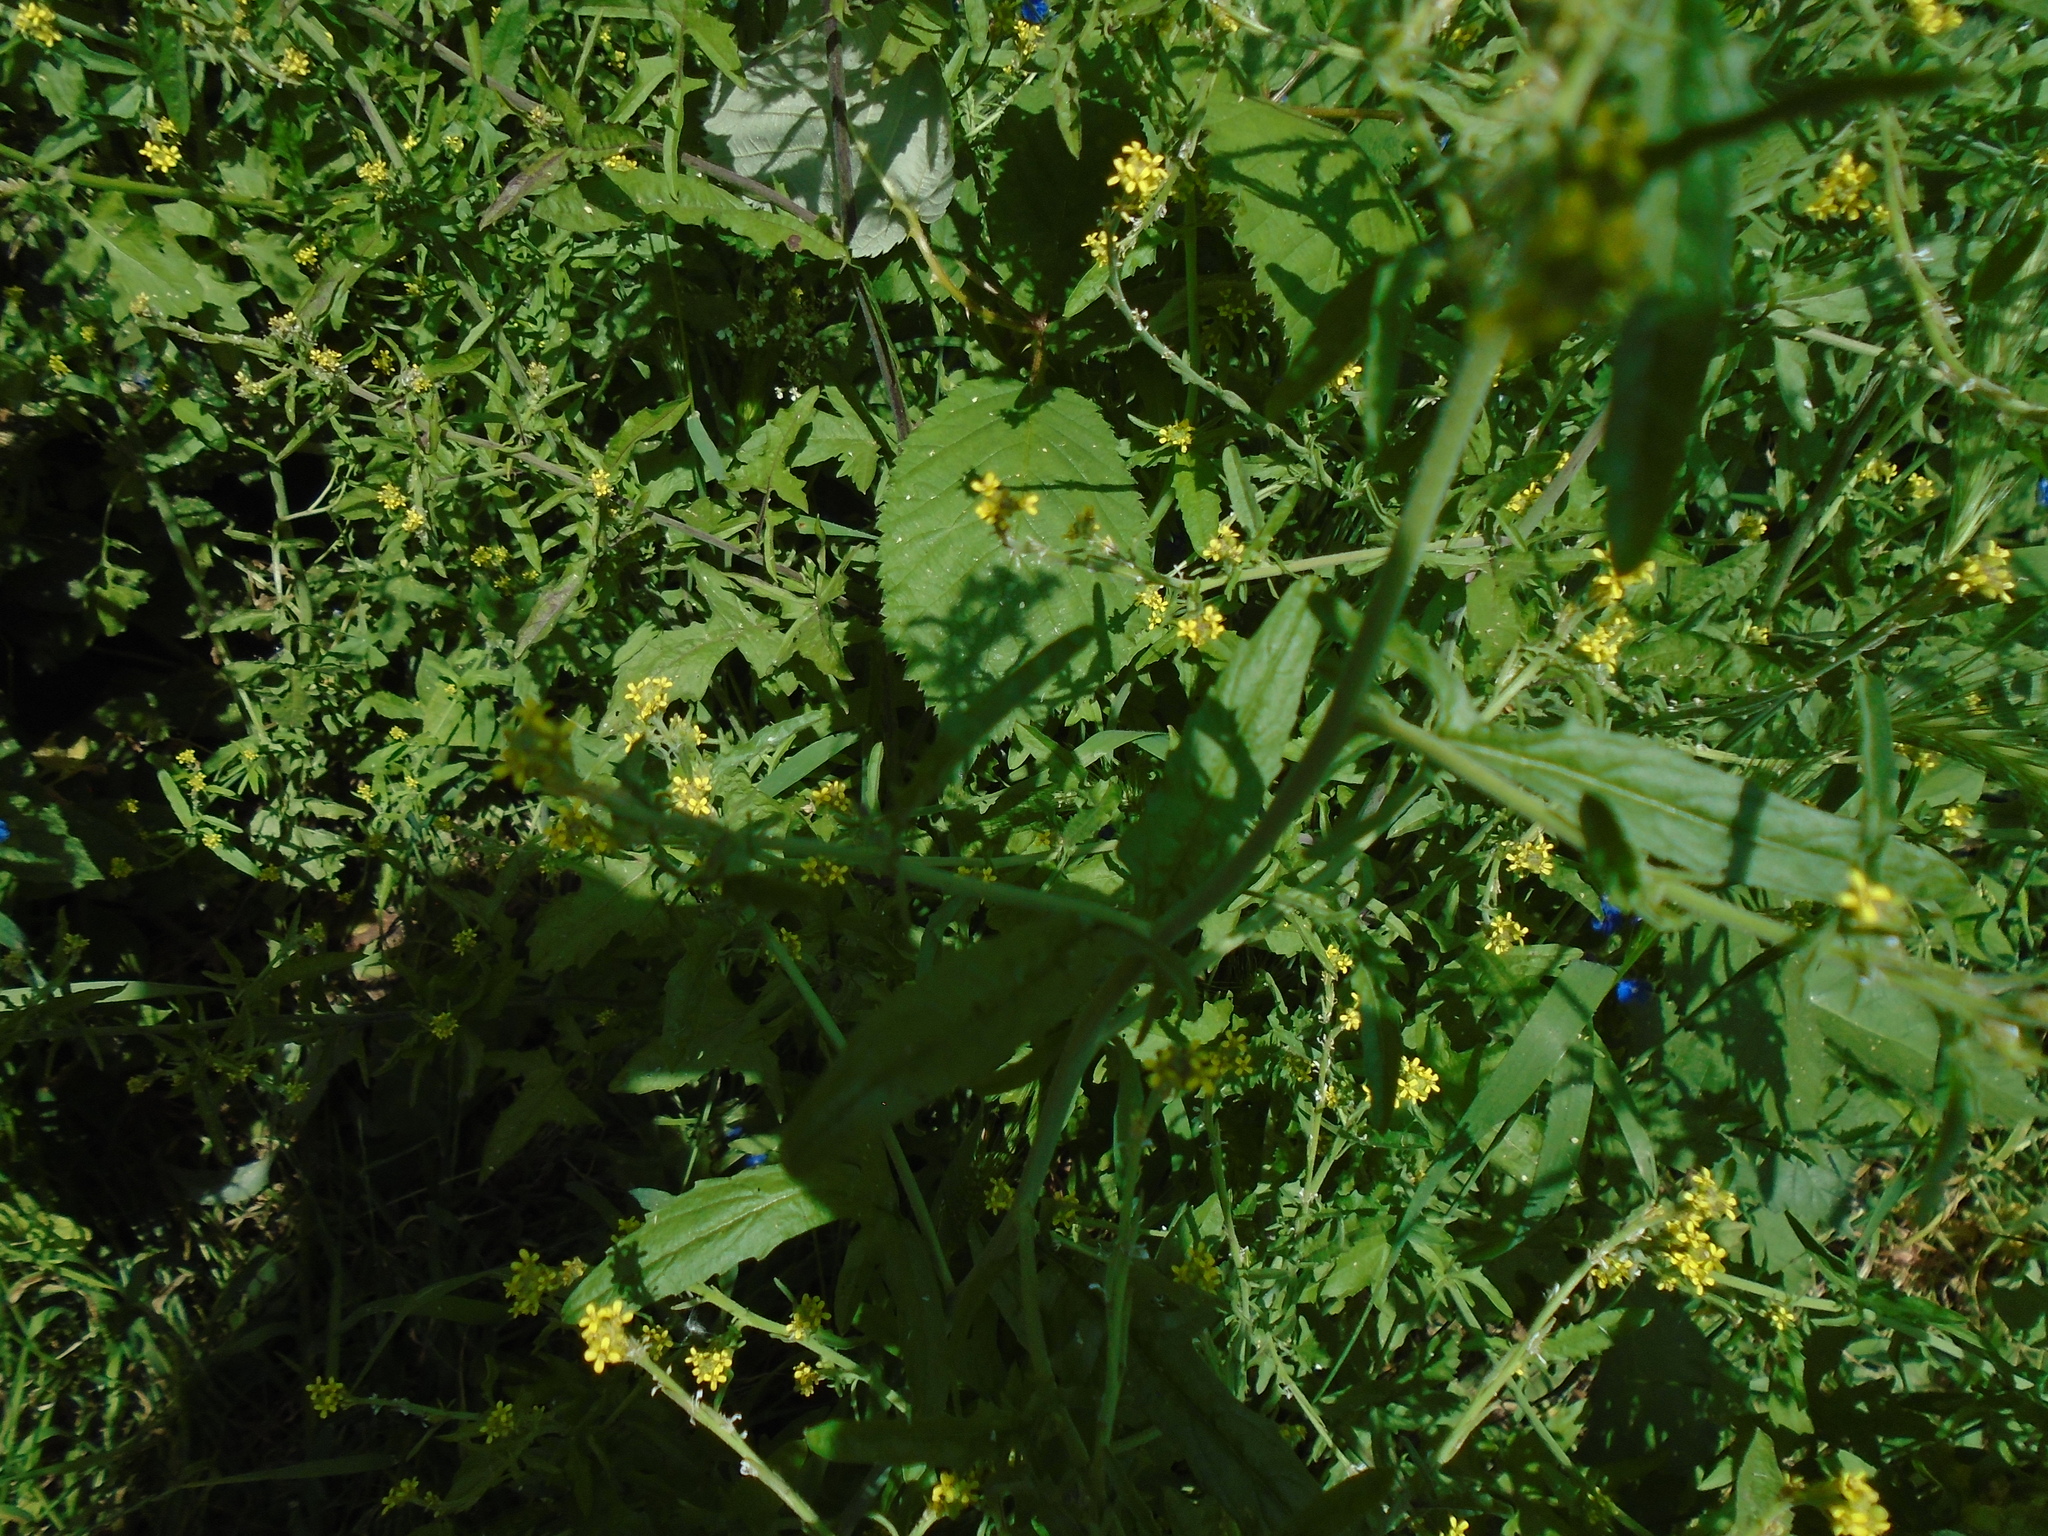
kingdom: Plantae
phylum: Tracheophyta
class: Magnoliopsida
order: Brassicales
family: Brassicaceae
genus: Sisymbrium
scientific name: Sisymbrium officinale
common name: Hedge mustard
